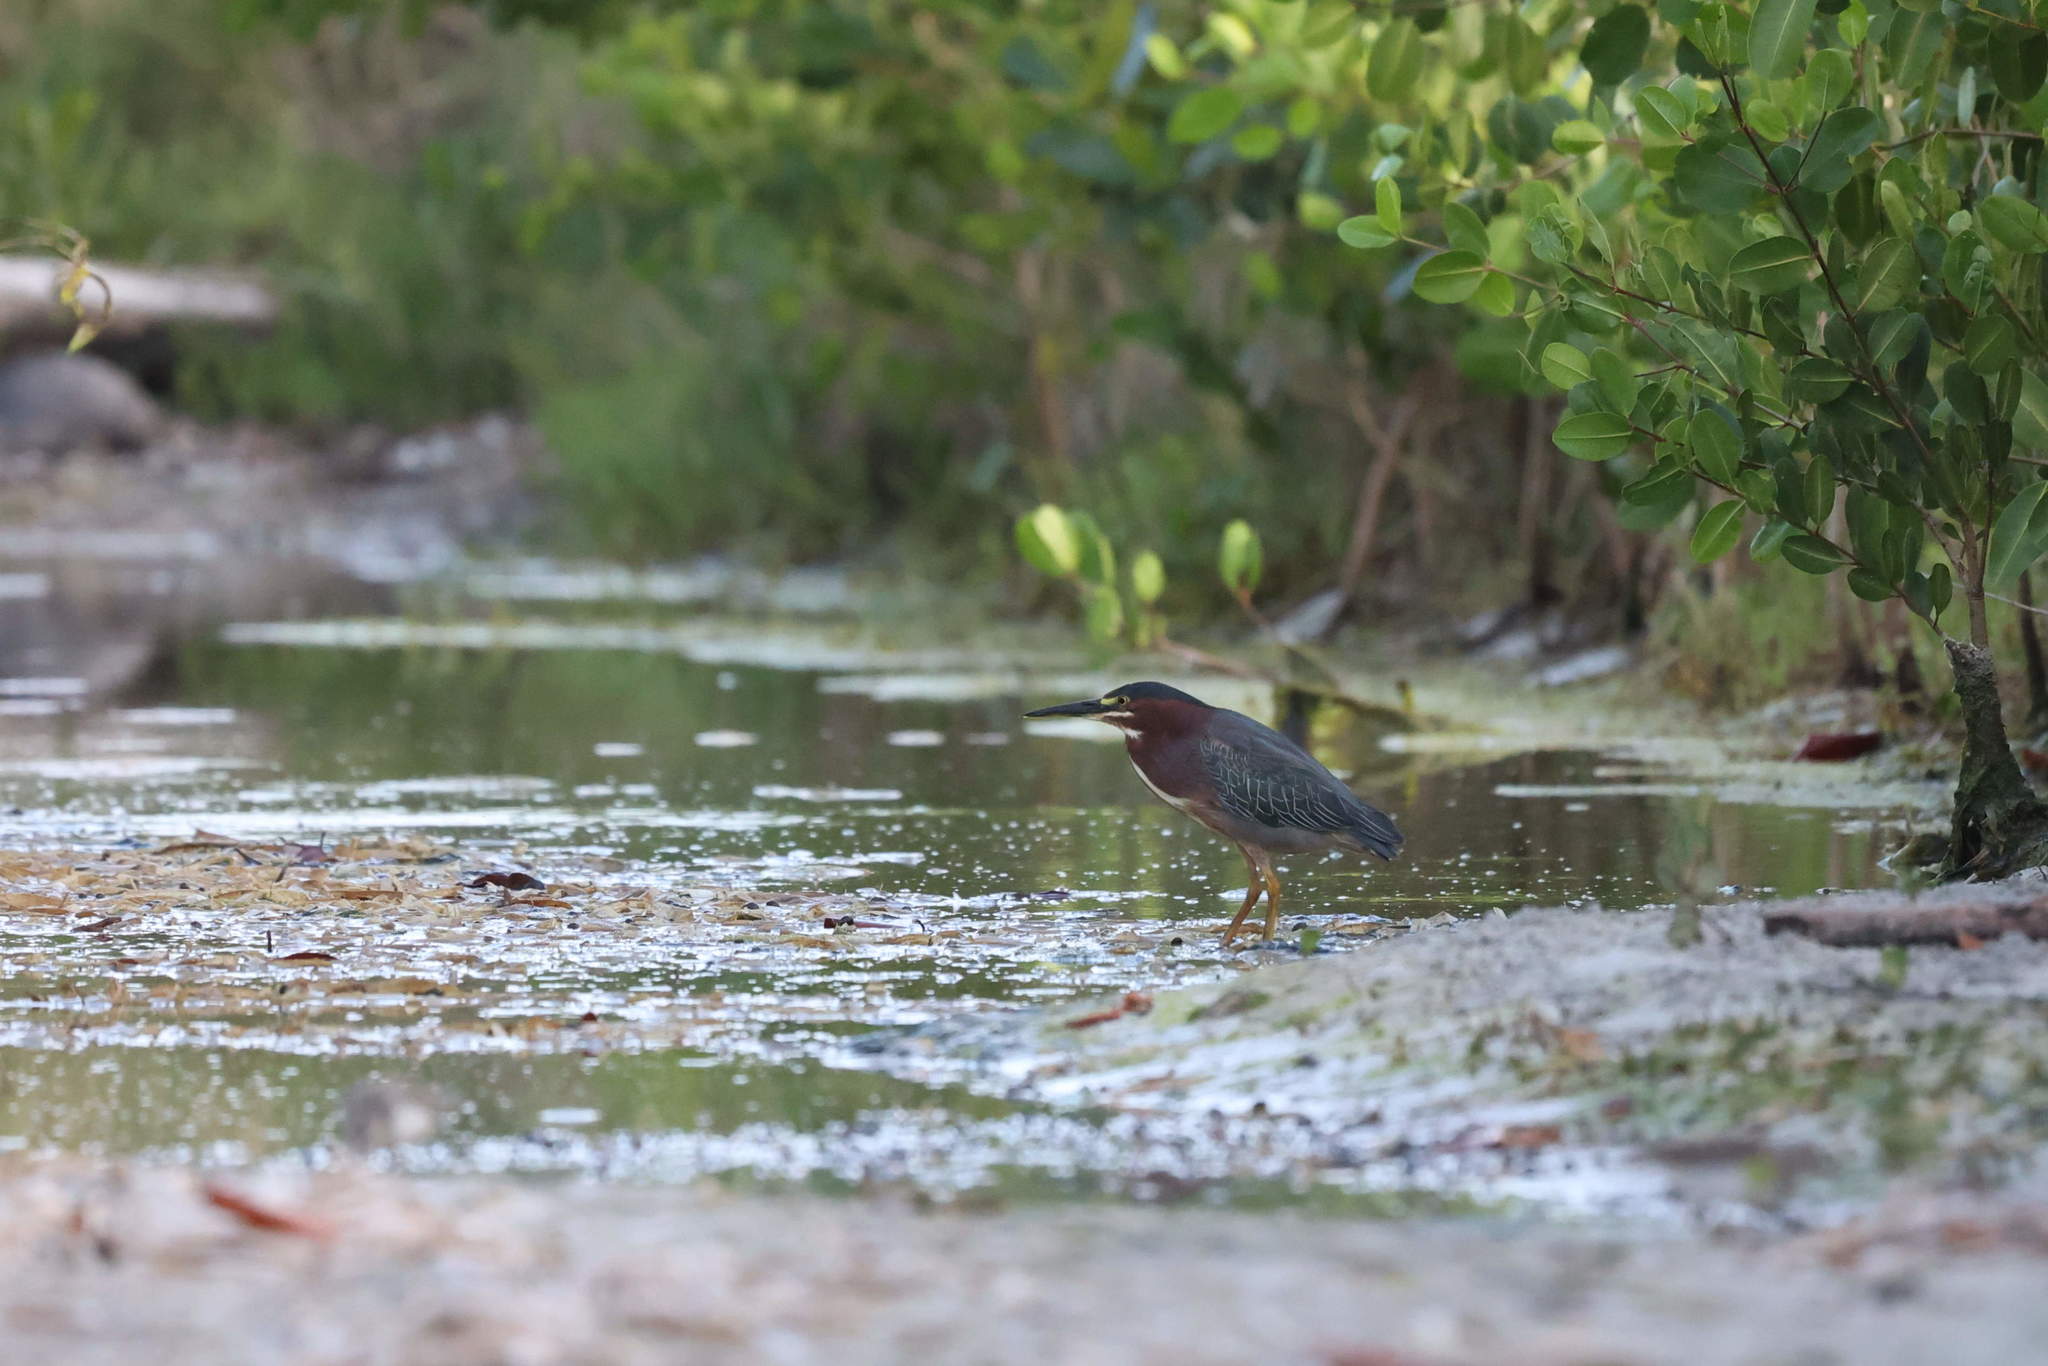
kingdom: Animalia
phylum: Chordata
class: Aves
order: Pelecaniformes
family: Ardeidae
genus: Butorides
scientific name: Butorides virescens
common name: Green heron
